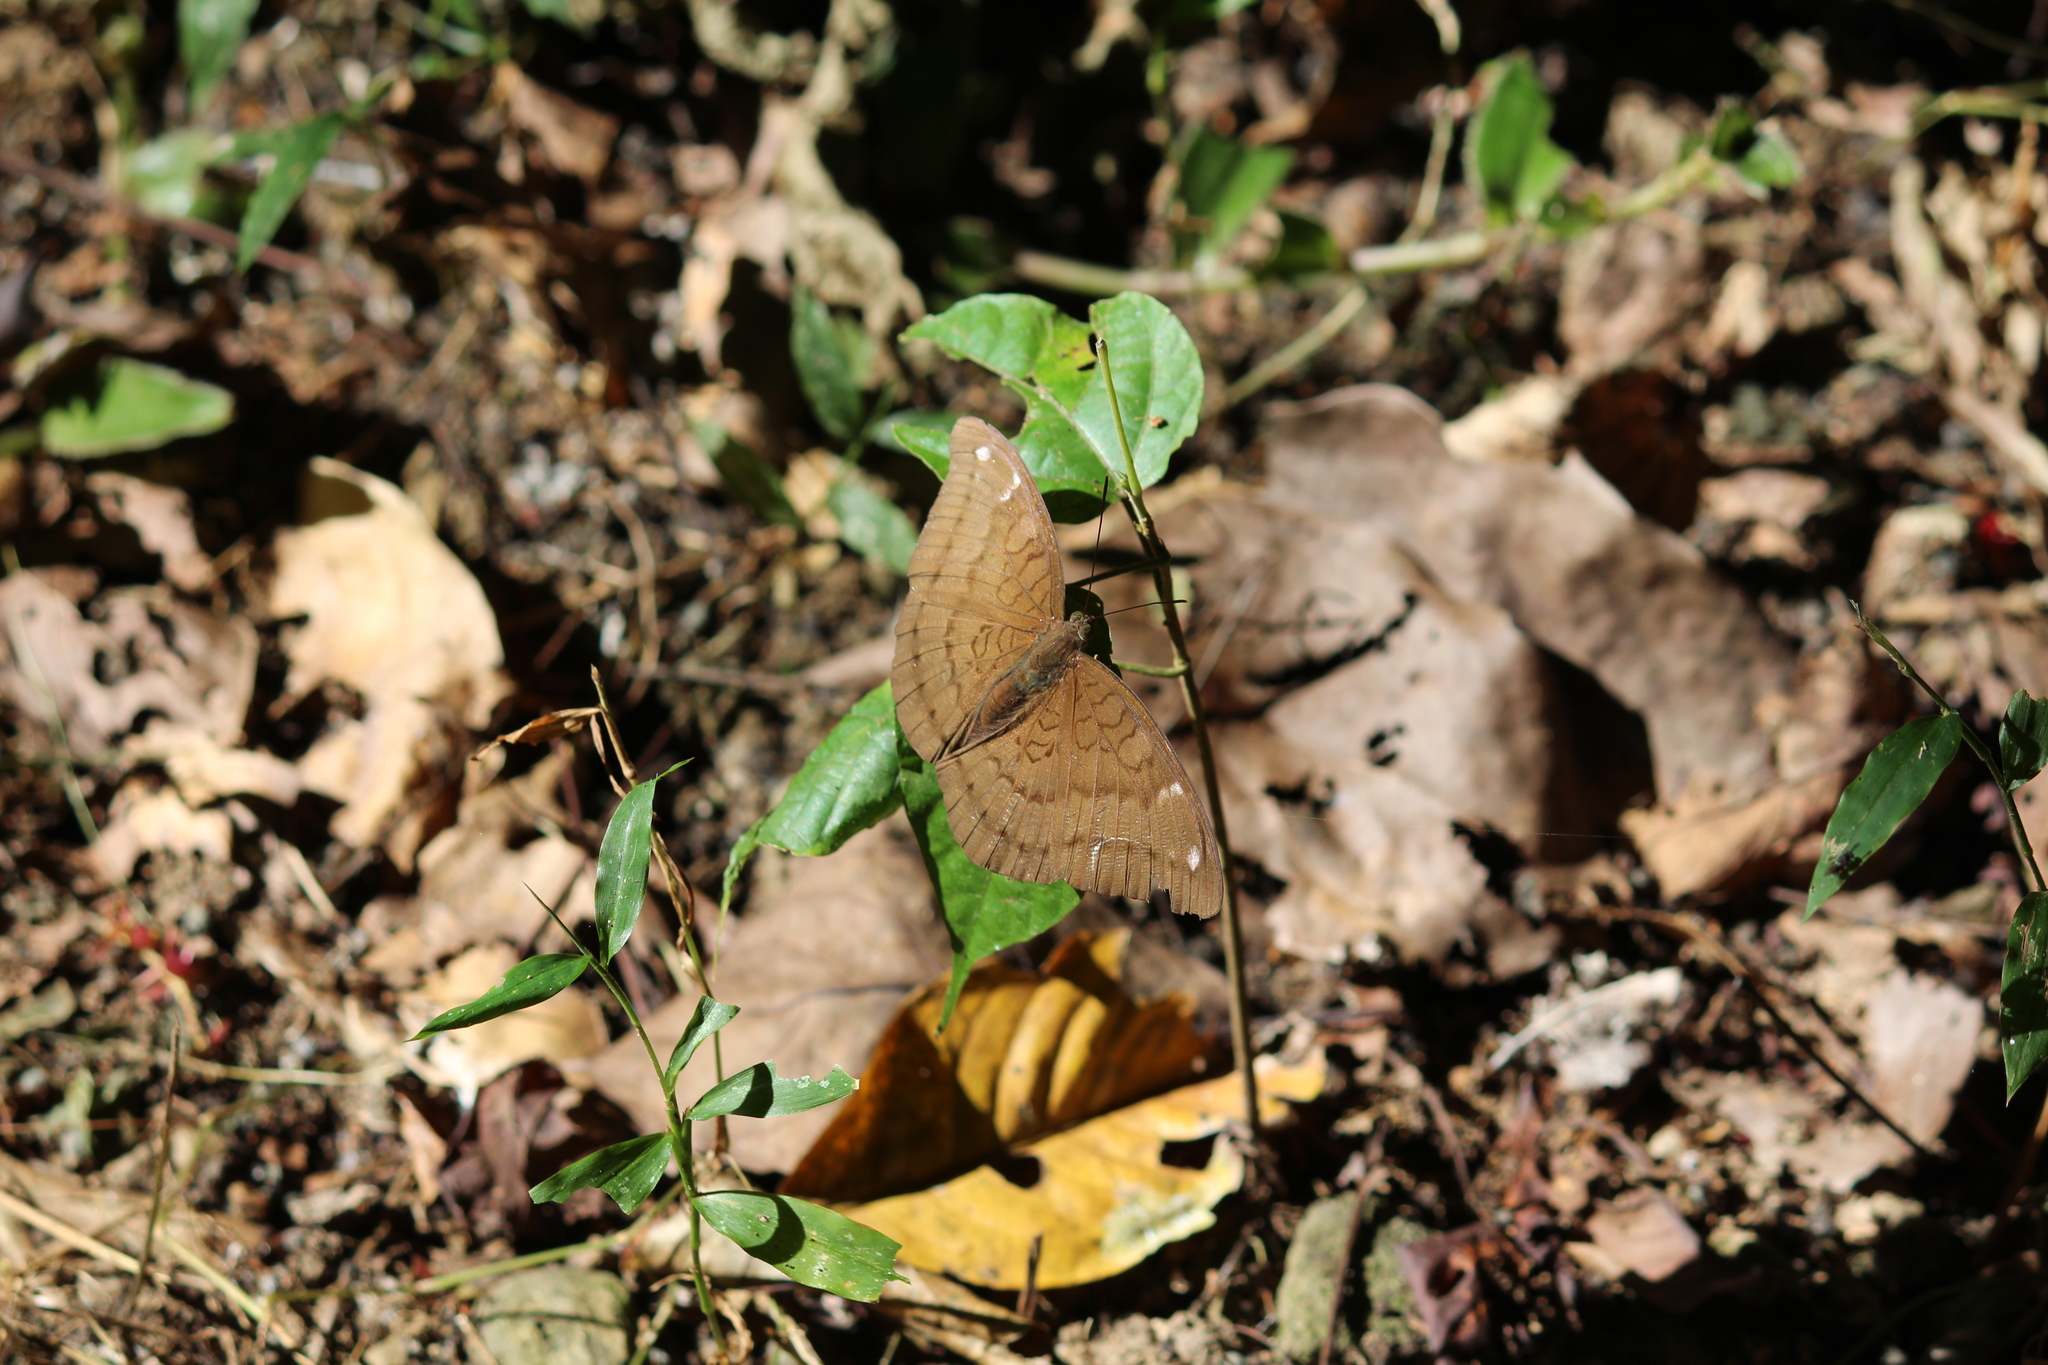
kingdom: Animalia
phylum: Arthropoda
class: Insecta
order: Lepidoptera
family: Nymphalidae
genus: Junonia
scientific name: Junonia iphita
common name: Chocolate pansy
